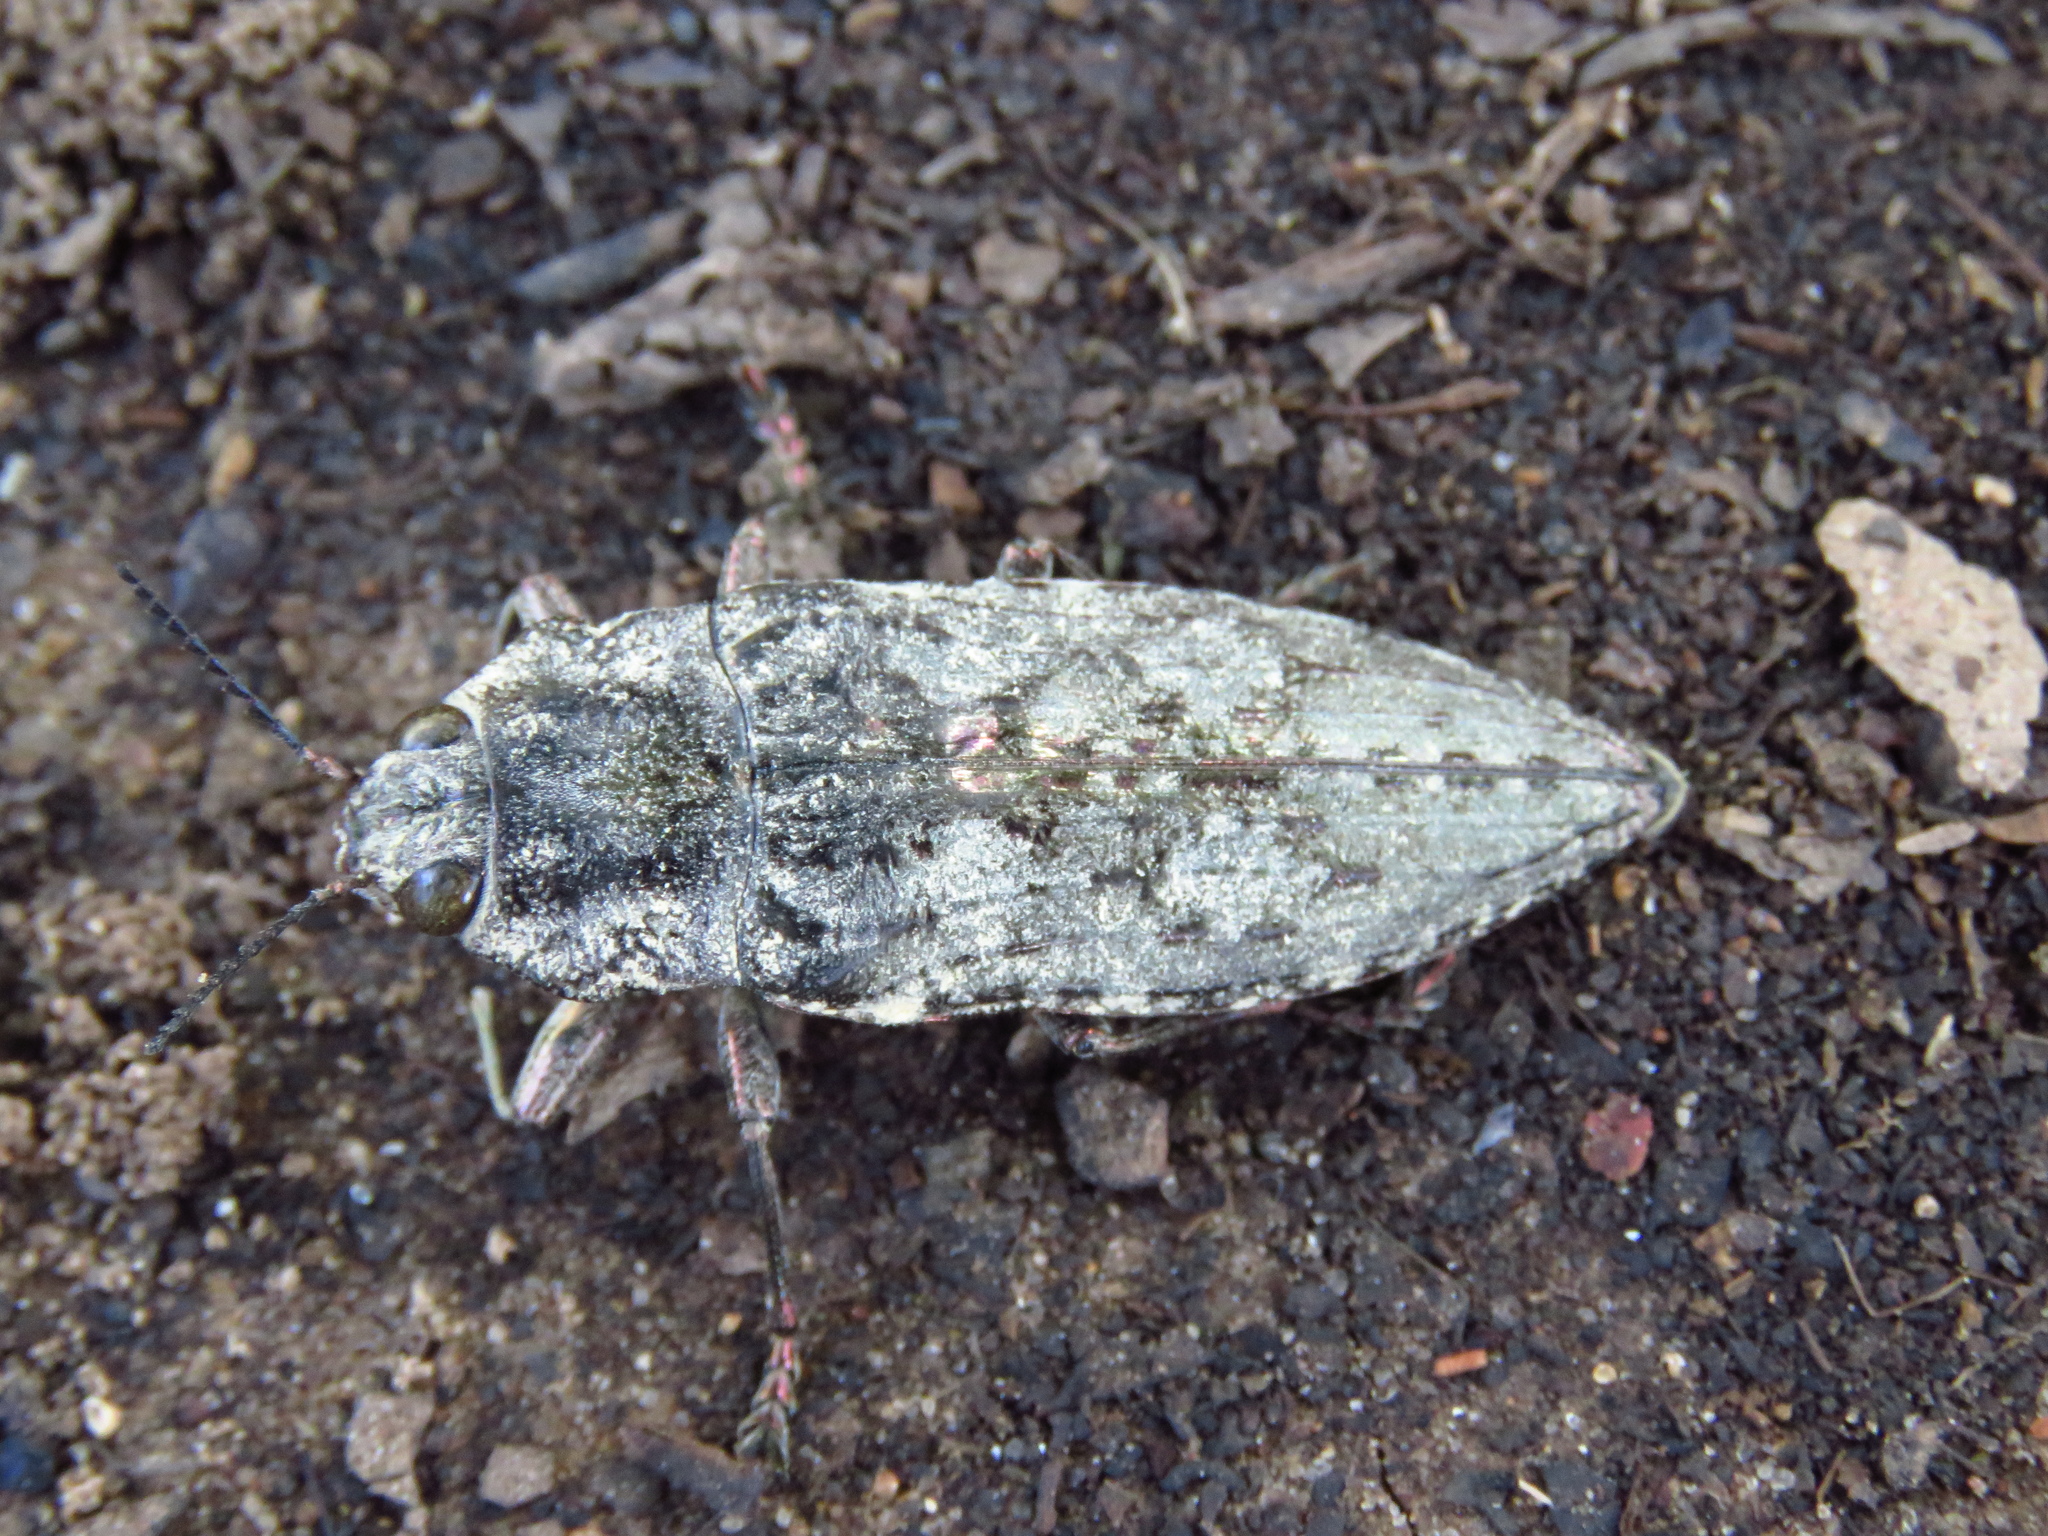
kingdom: Animalia
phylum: Arthropoda
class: Insecta
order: Coleoptera
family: Buprestidae
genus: Texania
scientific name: Texania fulleri
